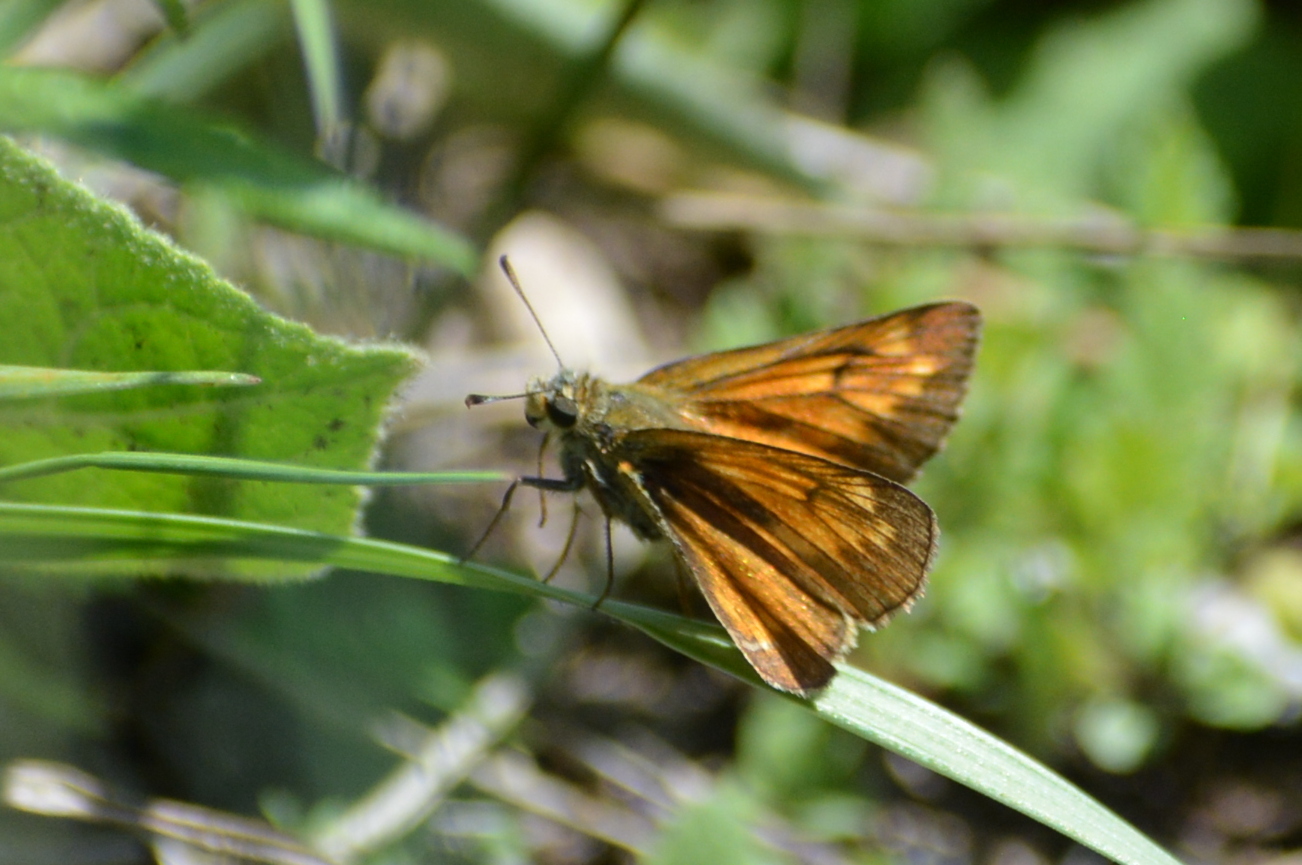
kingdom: Animalia
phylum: Arthropoda
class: Insecta
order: Lepidoptera
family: Hesperiidae
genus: Ochlodes
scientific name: Ochlodes venata
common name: Large skipper
